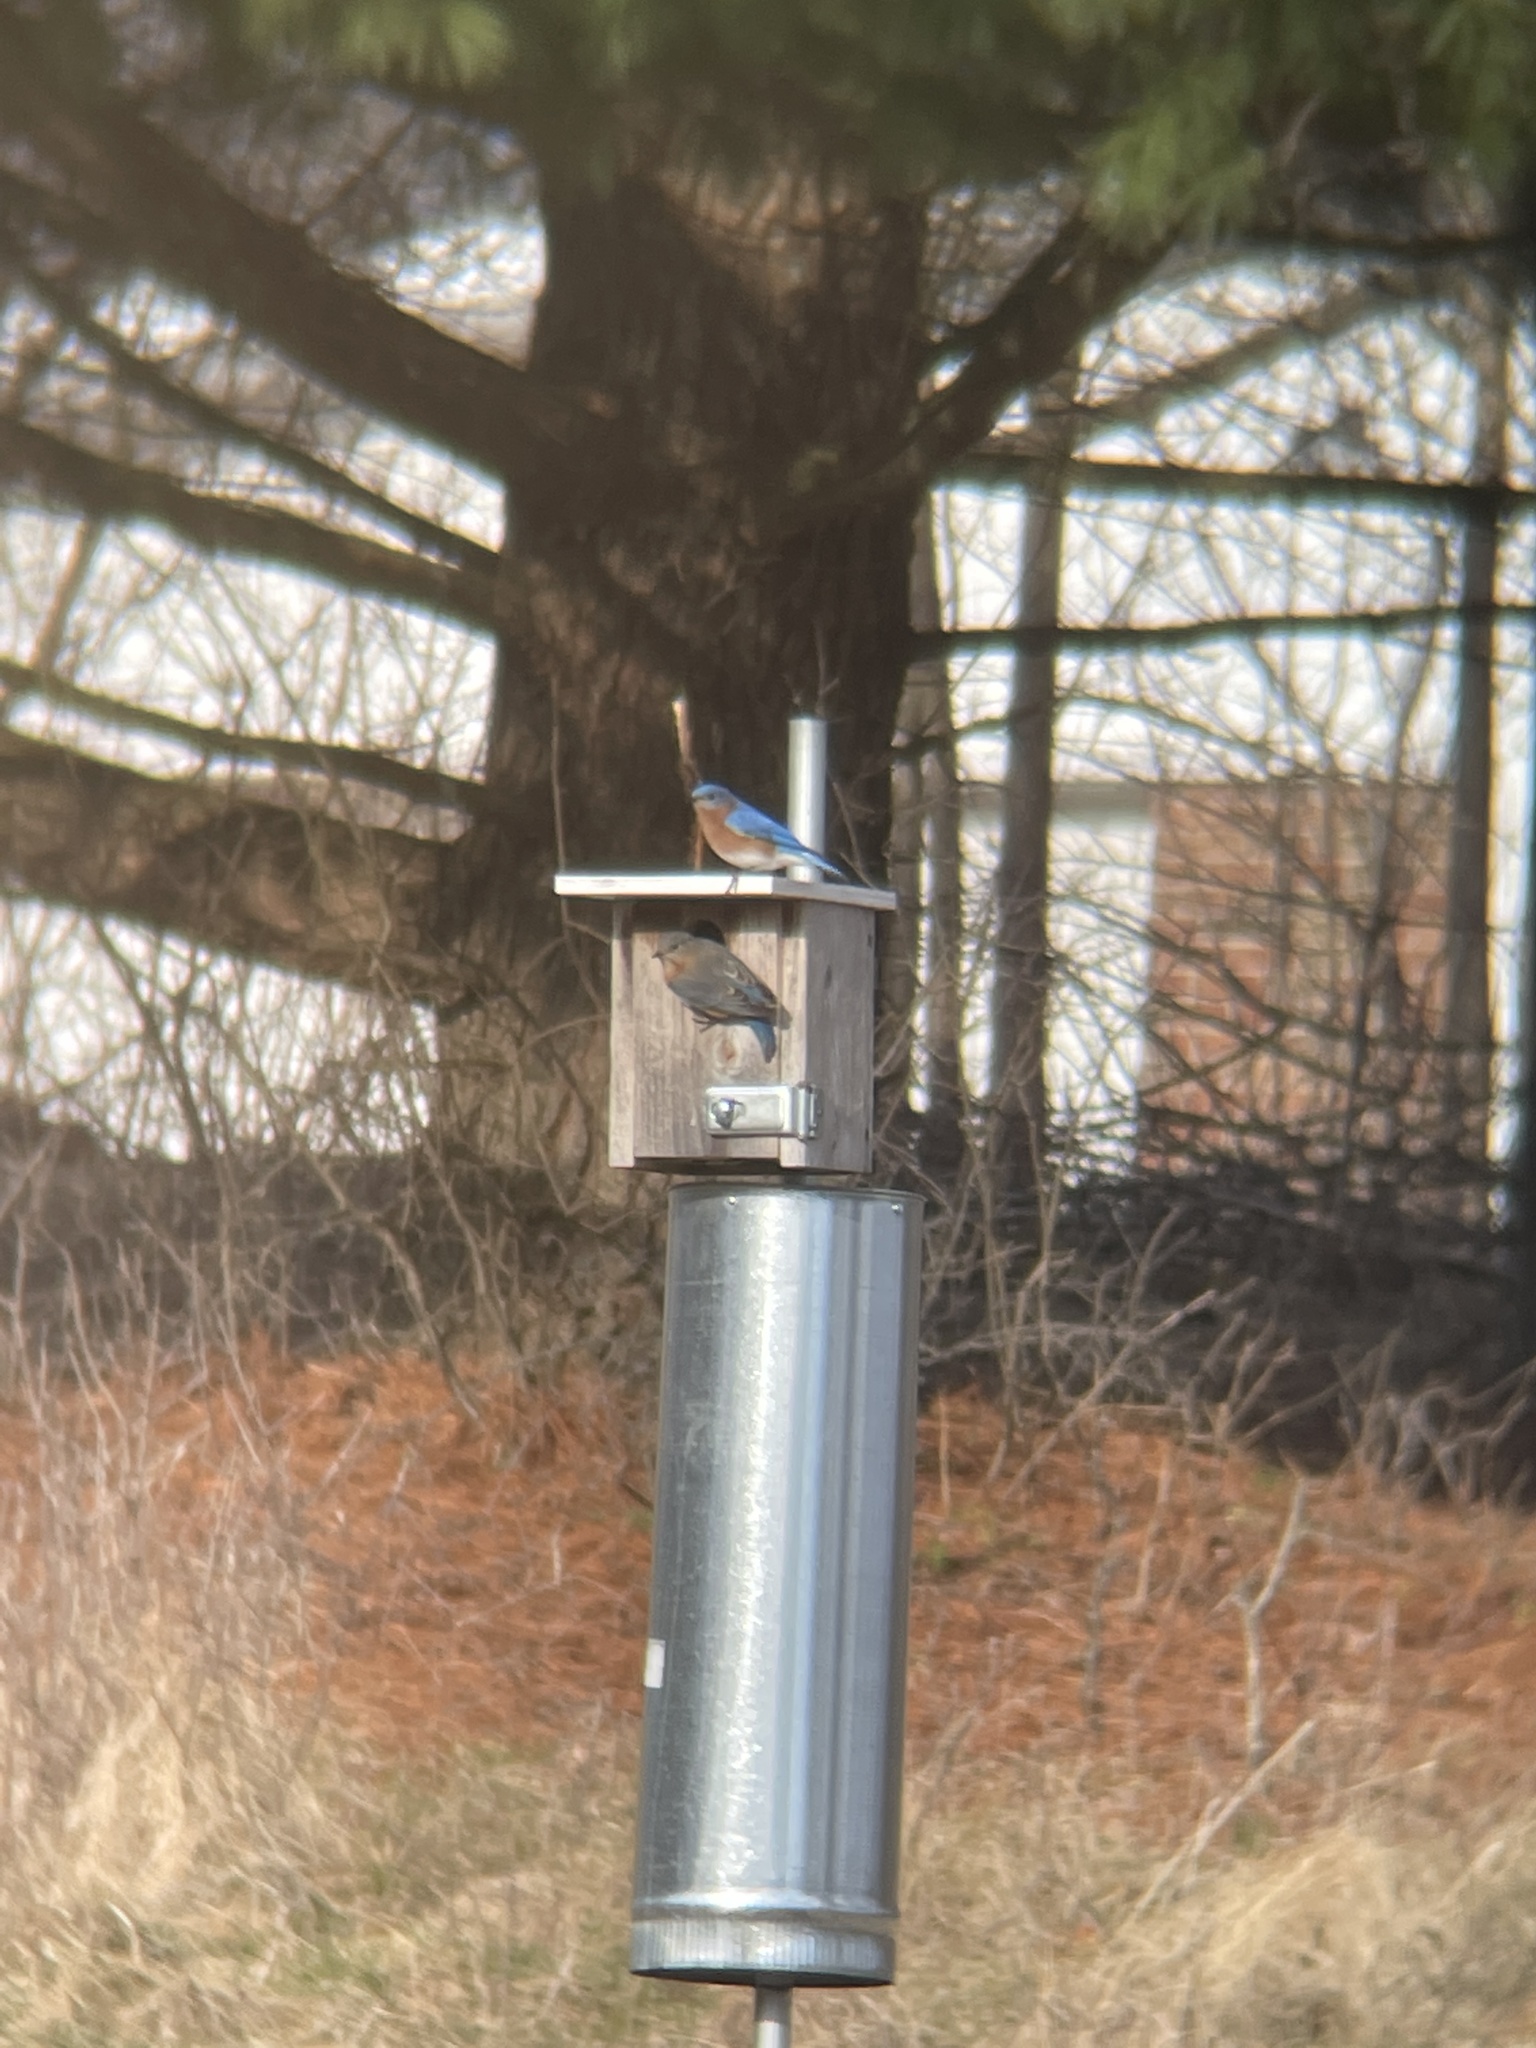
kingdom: Animalia
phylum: Chordata
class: Aves
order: Passeriformes
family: Turdidae
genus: Sialia
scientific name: Sialia sialis
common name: Eastern bluebird
